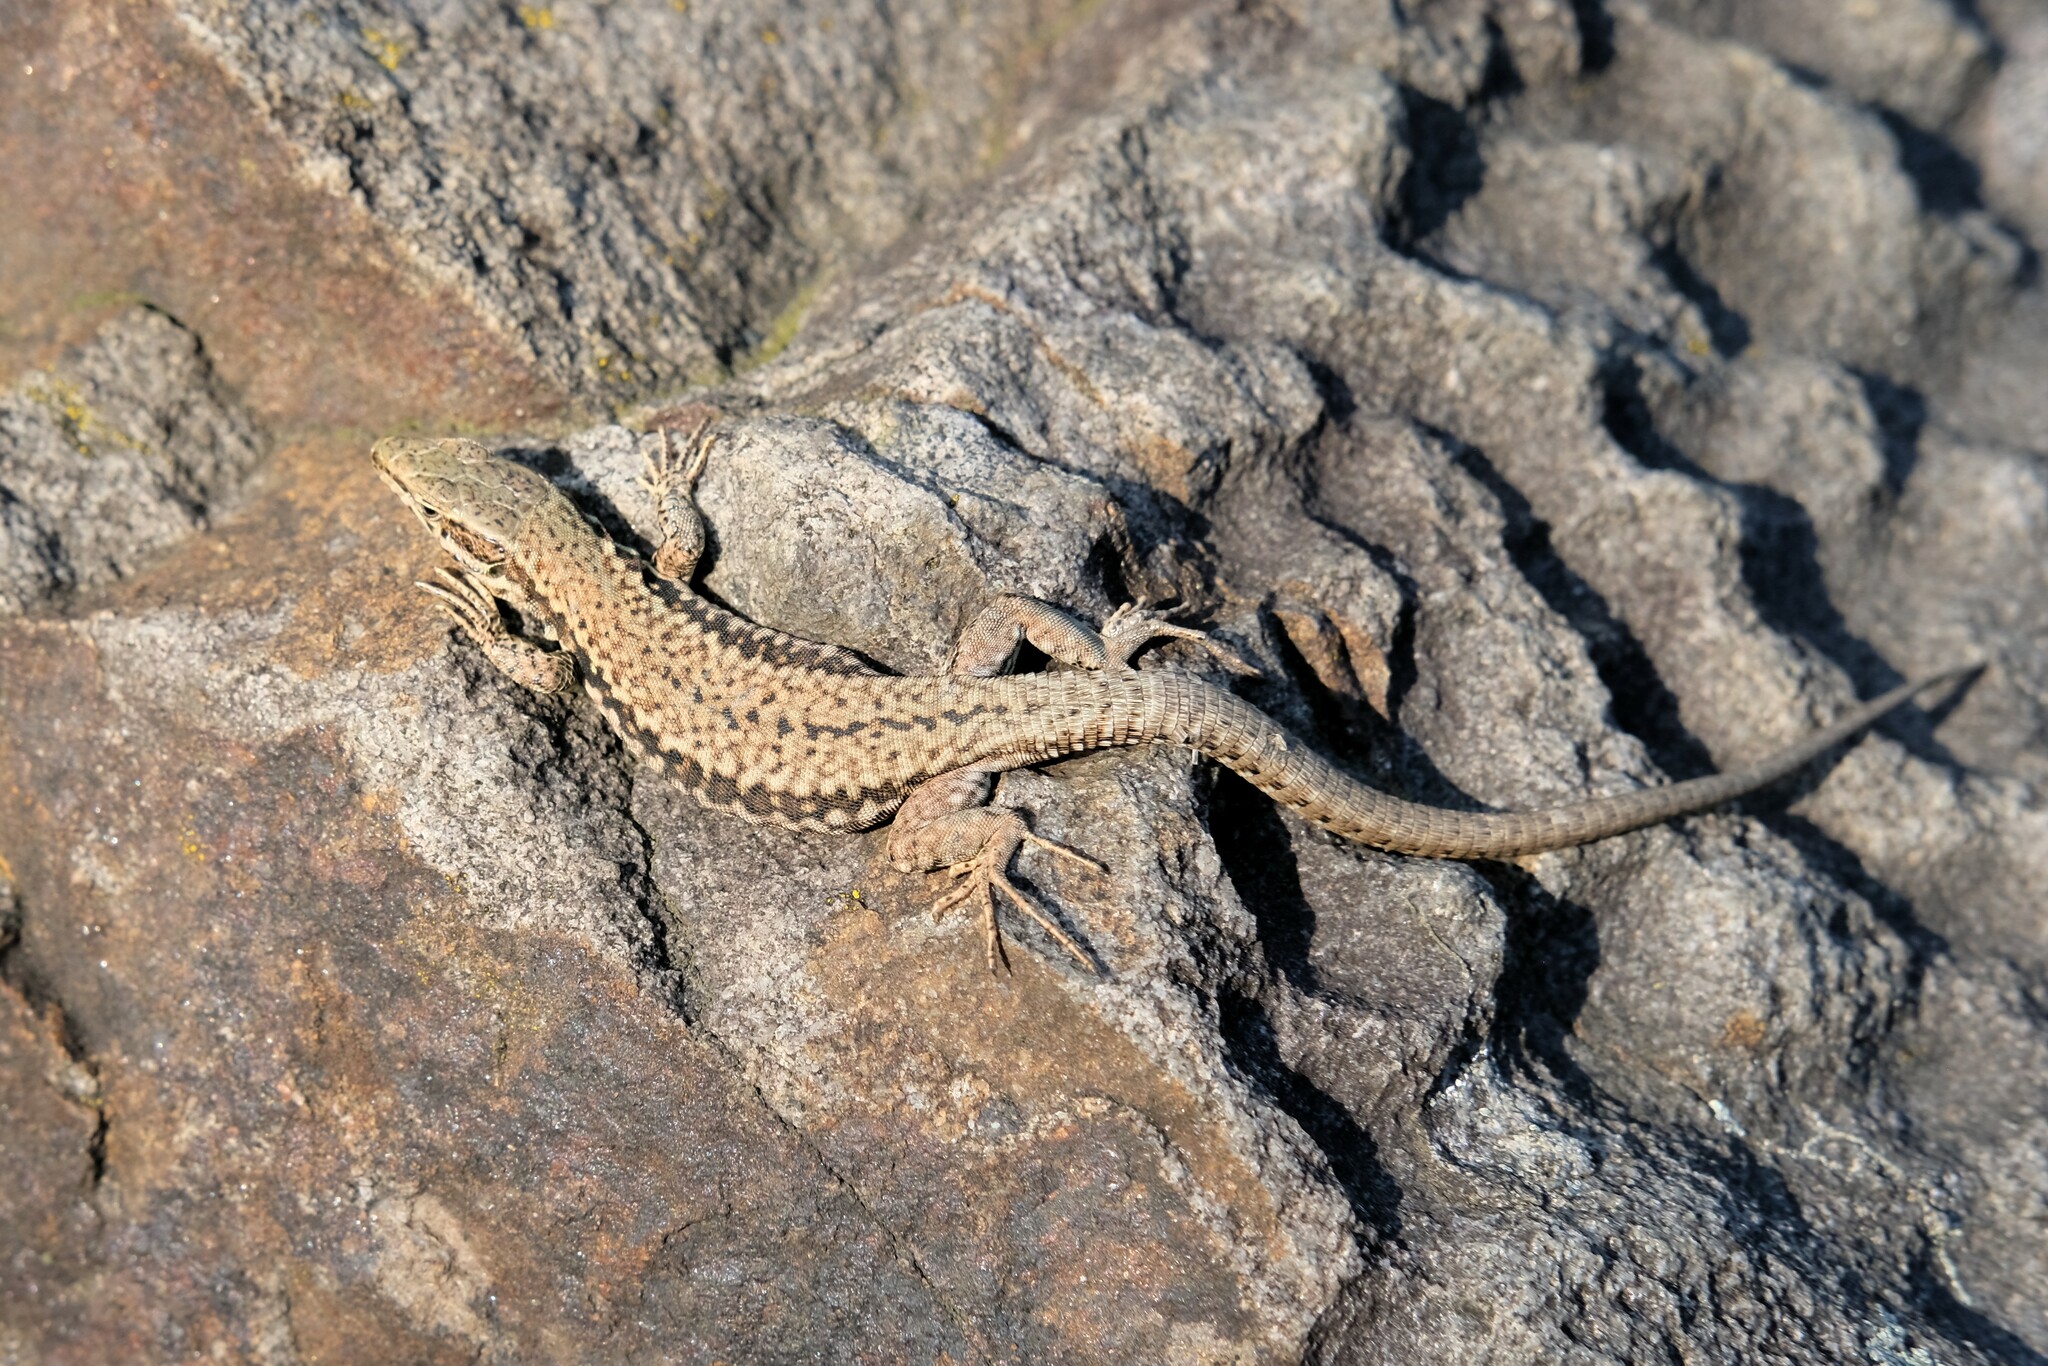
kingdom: Animalia
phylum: Chordata
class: Squamata
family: Lacertidae
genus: Podarcis
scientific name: Podarcis muralis
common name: Common wall lizard
